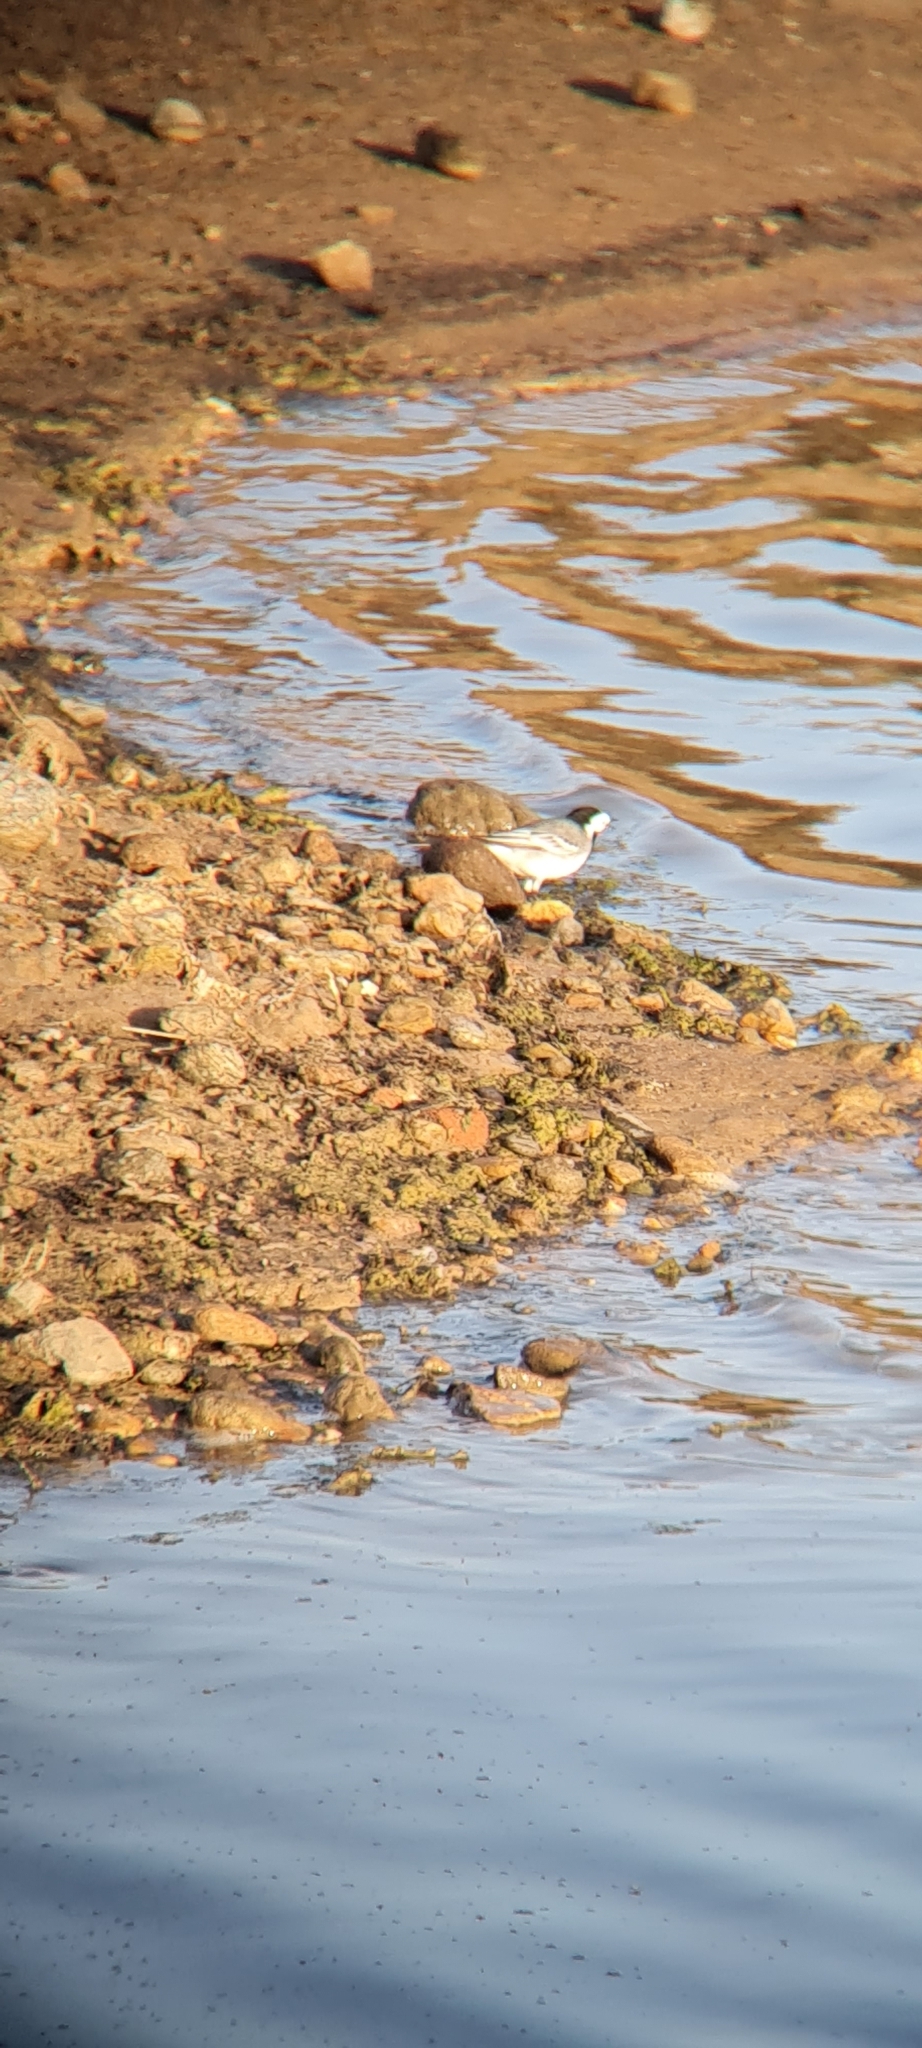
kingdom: Animalia
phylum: Chordata
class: Aves
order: Passeriformes
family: Motacillidae
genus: Motacilla
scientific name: Motacilla alba
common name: White wagtail
